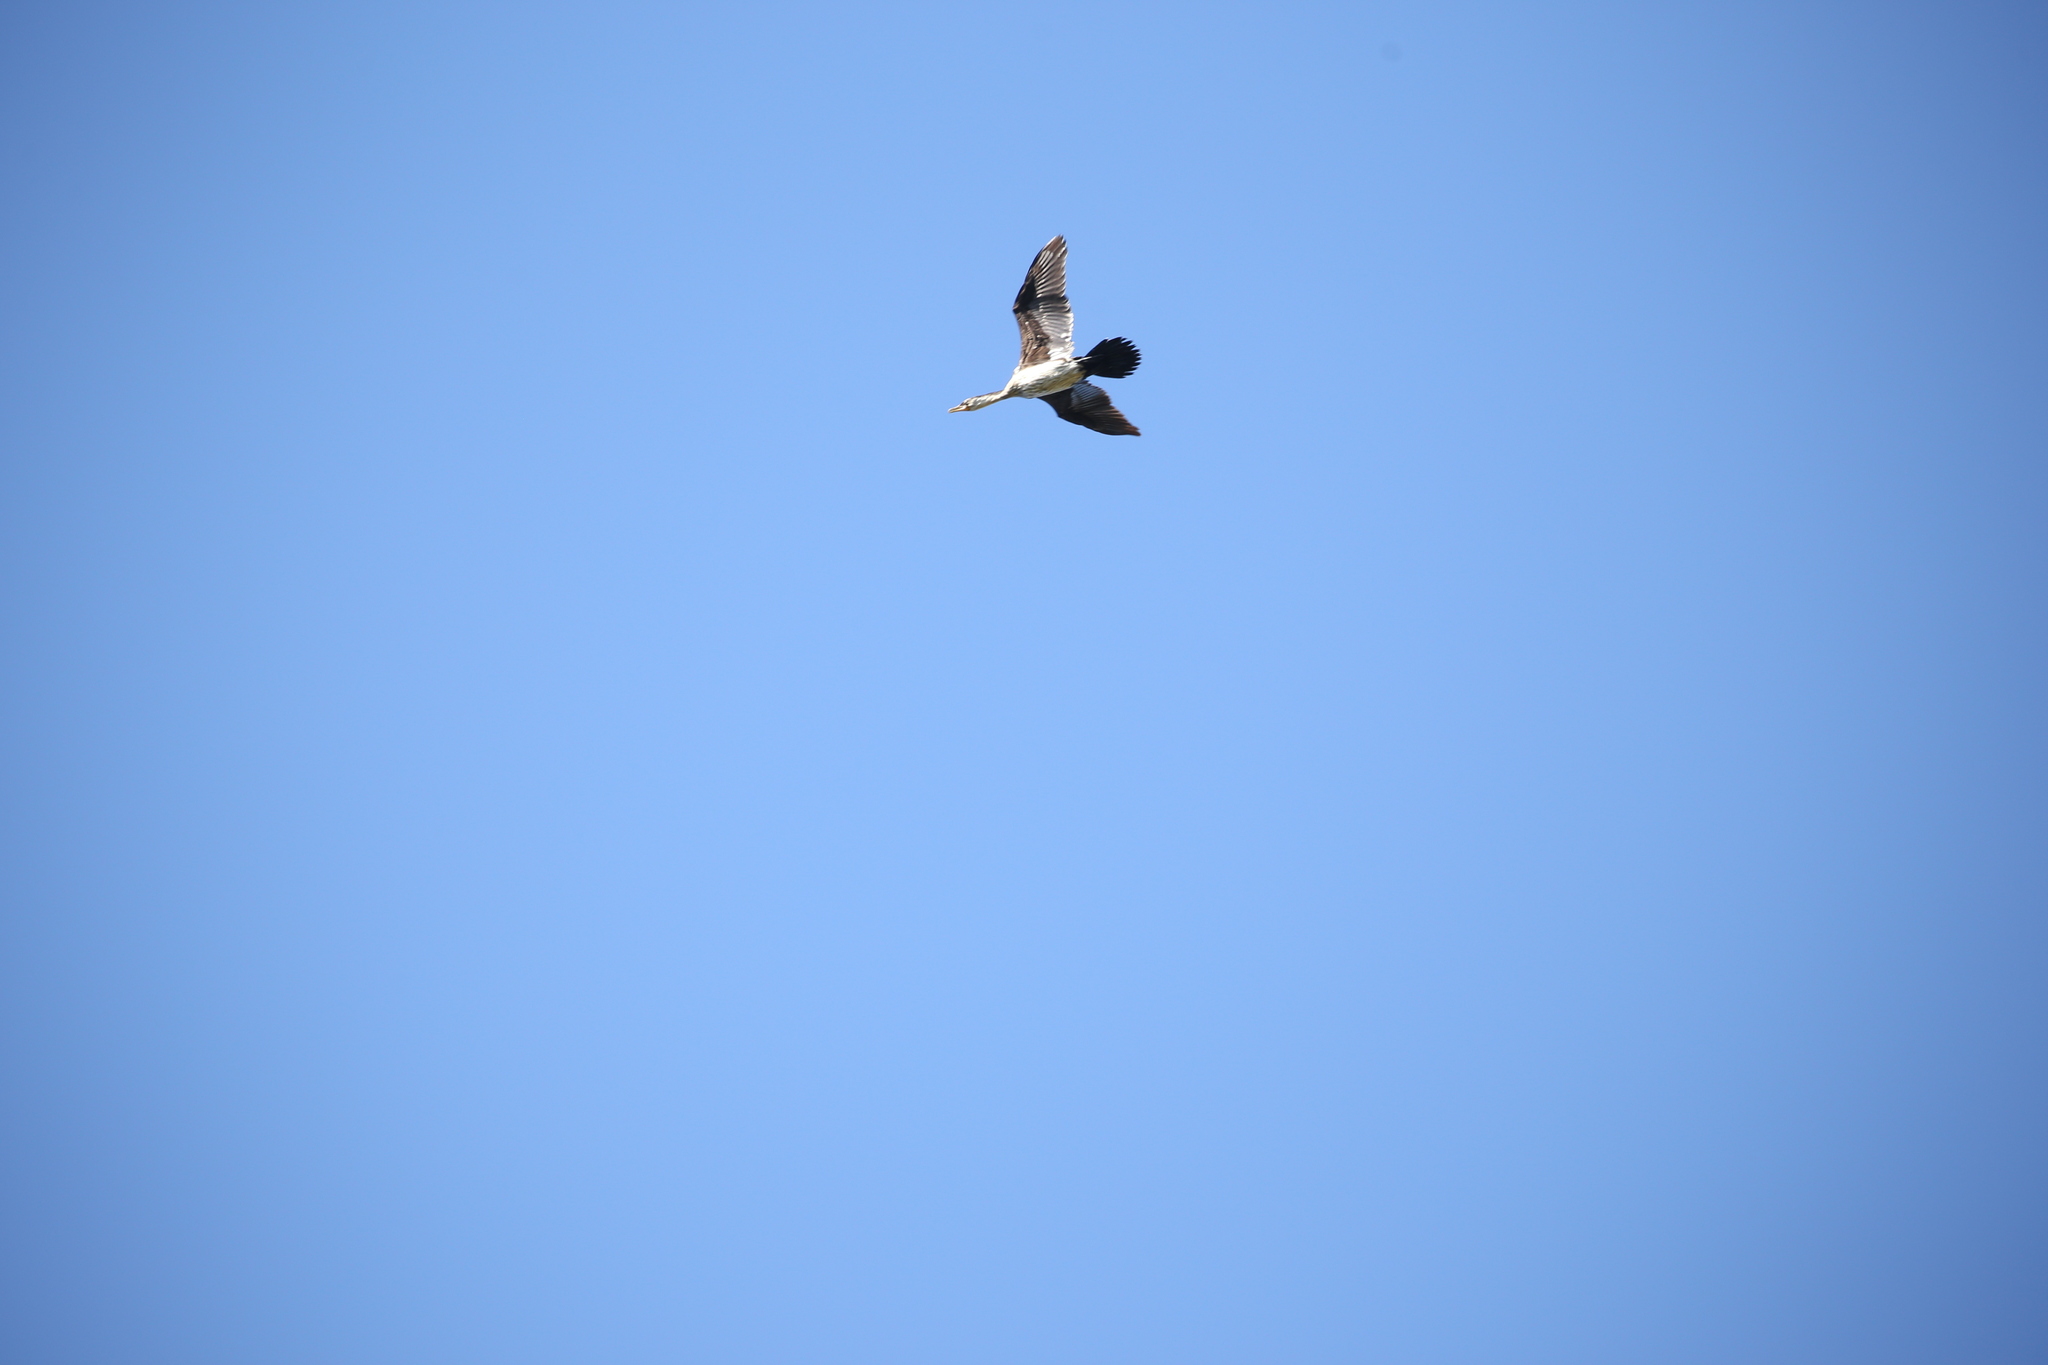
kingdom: Animalia
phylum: Chordata
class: Aves
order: Suliformes
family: Phalacrocoracidae
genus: Microcarbo
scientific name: Microcarbo melanoleucos
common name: Little pied cormorant
